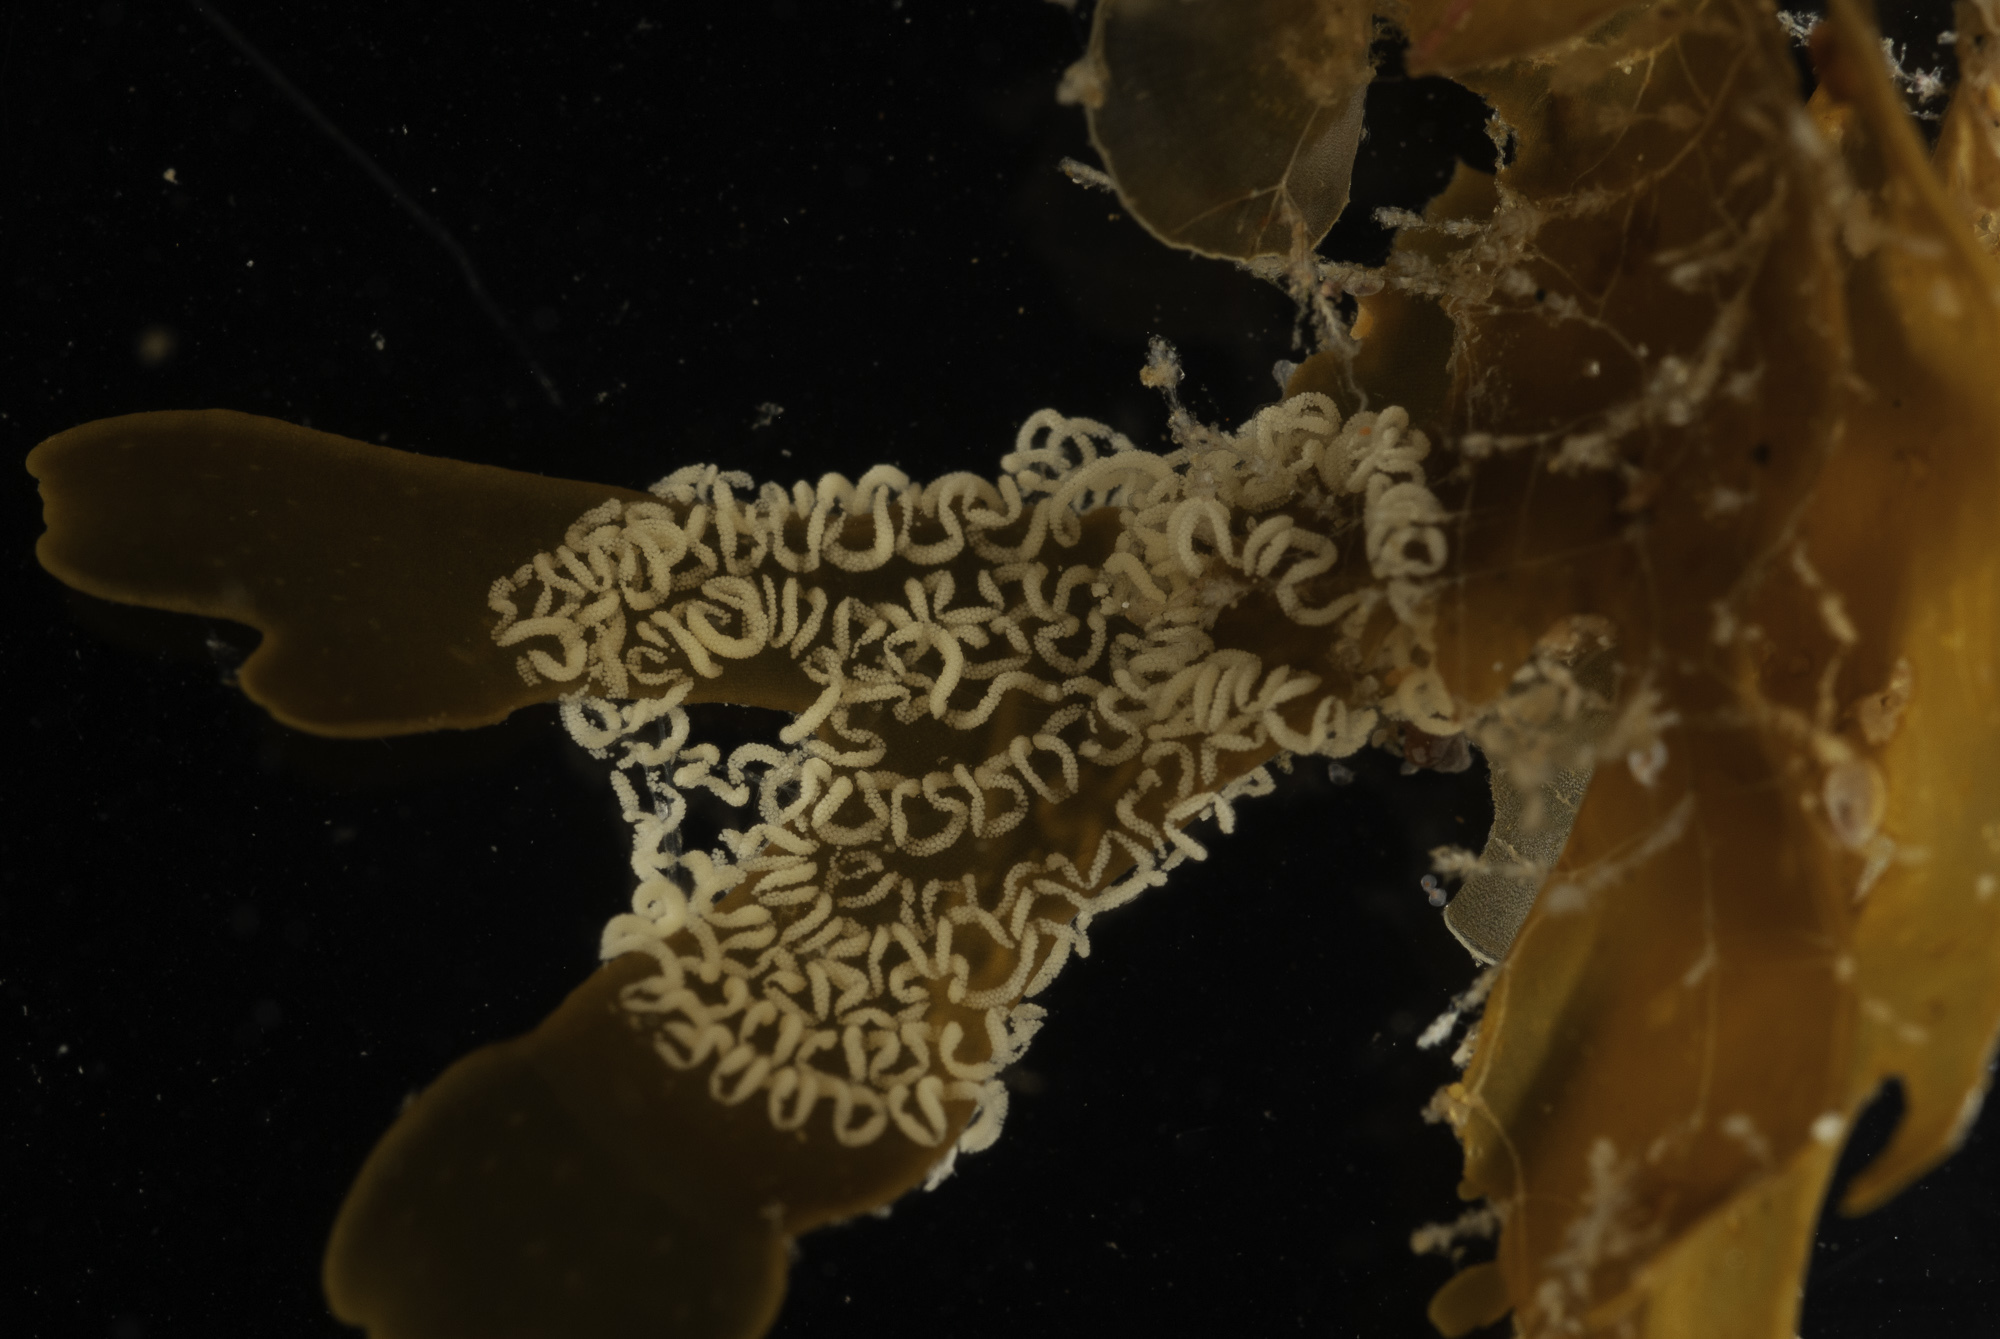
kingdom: Animalia
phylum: Mollusca
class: Gastropoda
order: Nudibranchia
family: Facelinidae
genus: Sakuraeolis
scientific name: Sakuraeolis arcana
